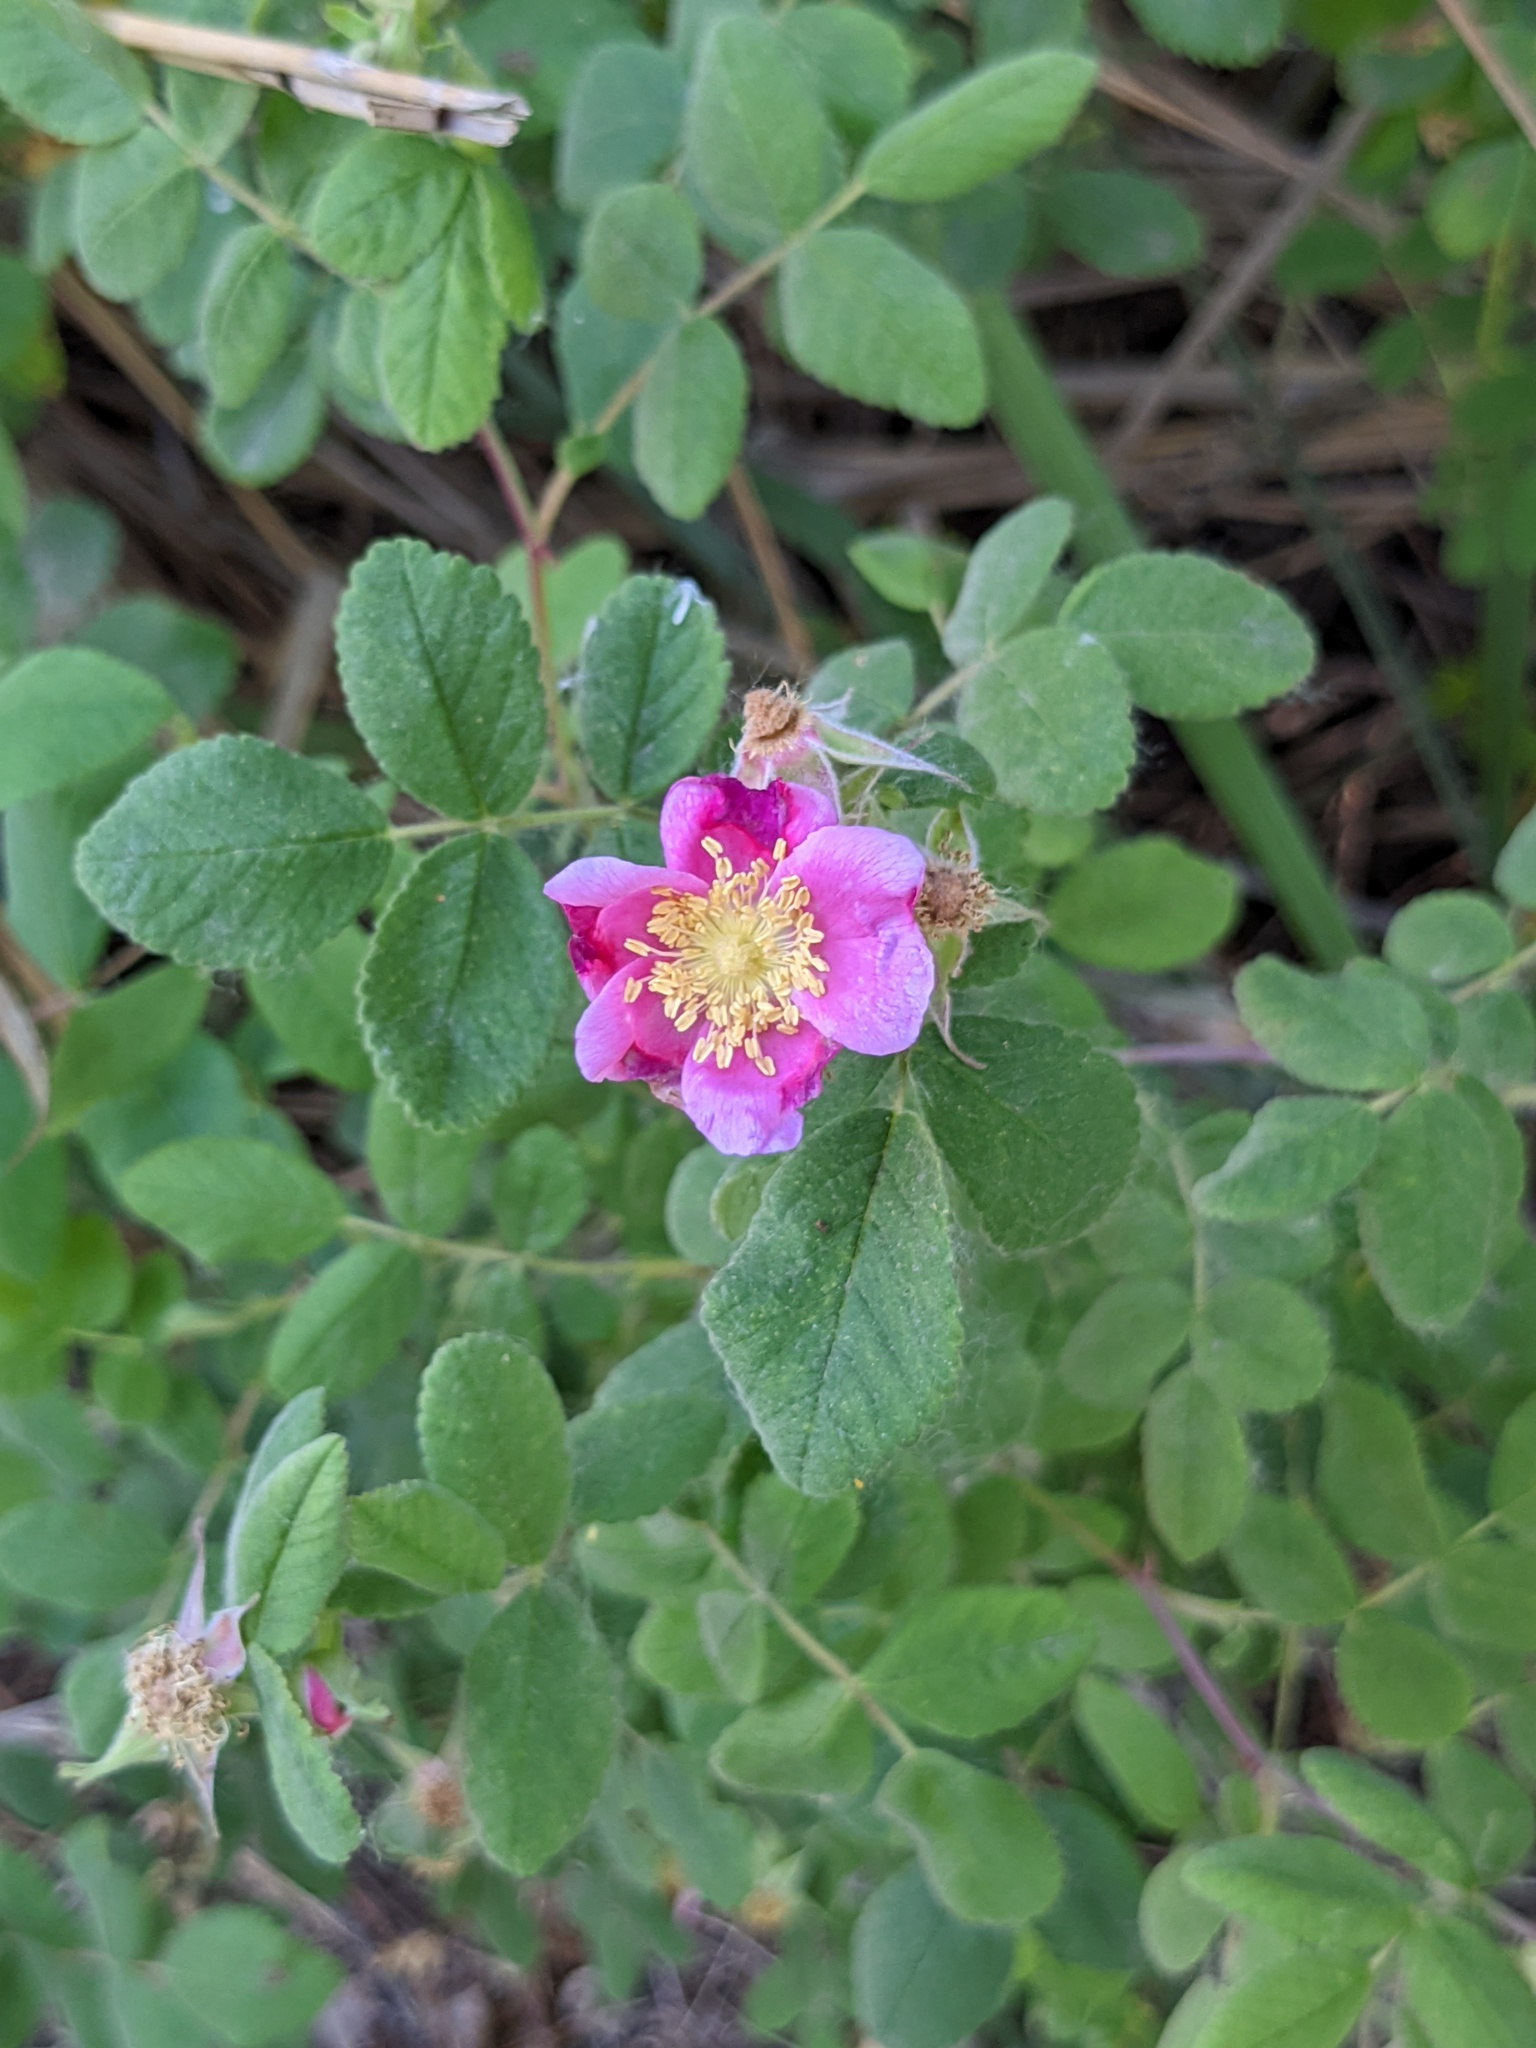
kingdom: Plantae
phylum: Tracheophyta
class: Magnoliopsida
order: Rosales
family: Rosaceae
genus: Rosa
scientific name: Rosa californica
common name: California rose
